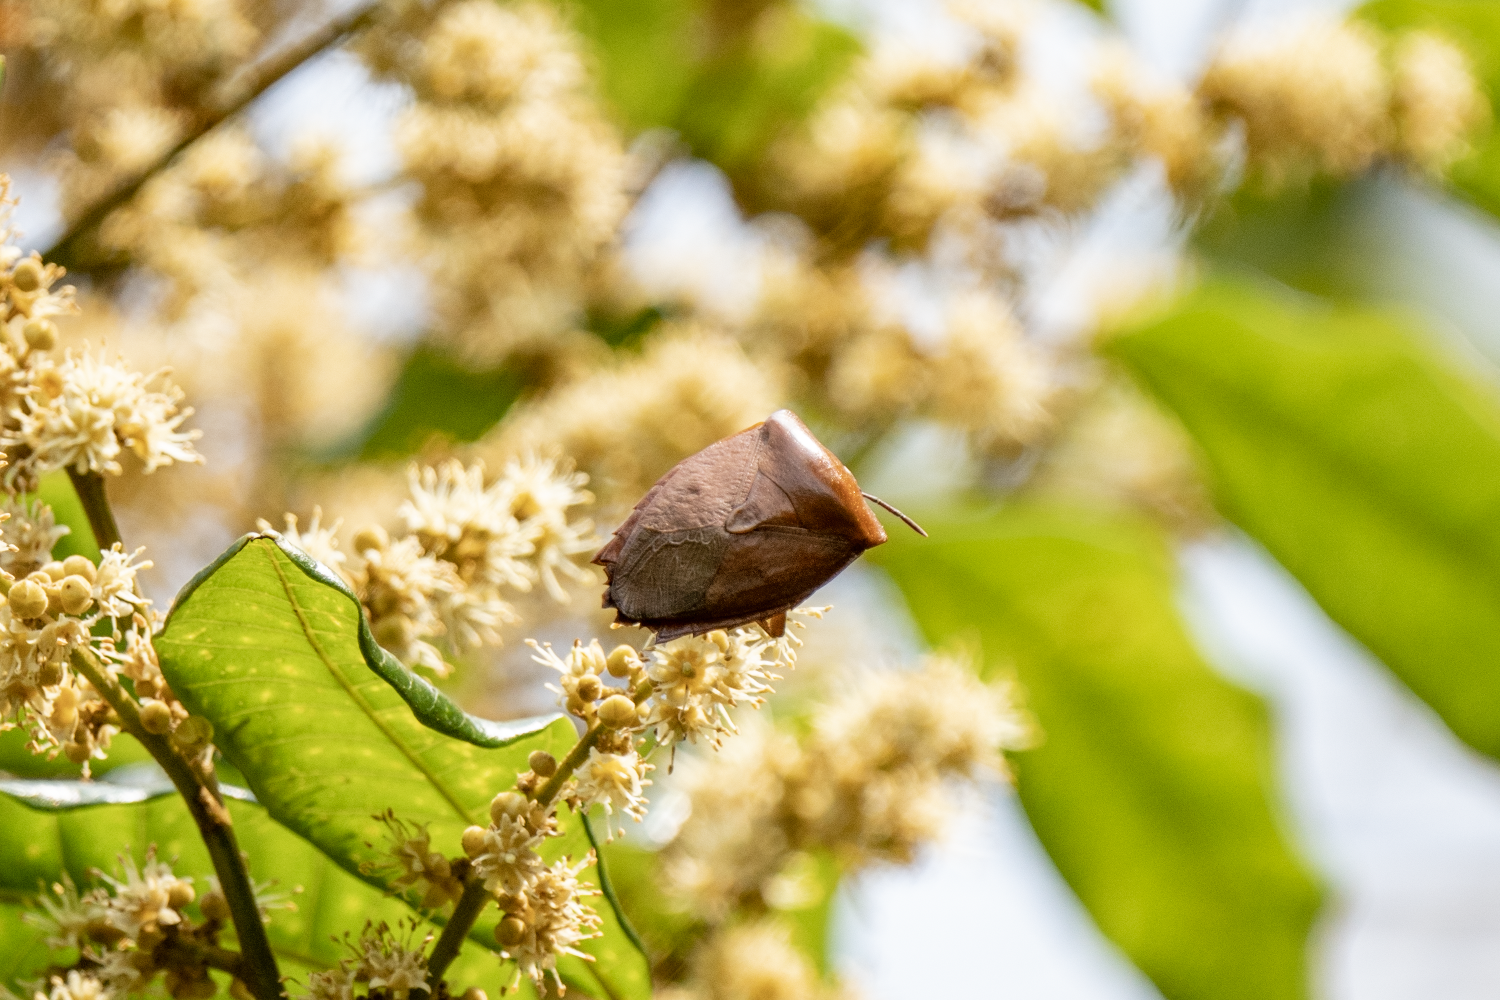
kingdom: Animalia
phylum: Arthropoda
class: Insecta
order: Hemiptera
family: Tessaratomidae
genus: Tessaratoma
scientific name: Tessaratoma papillosa
